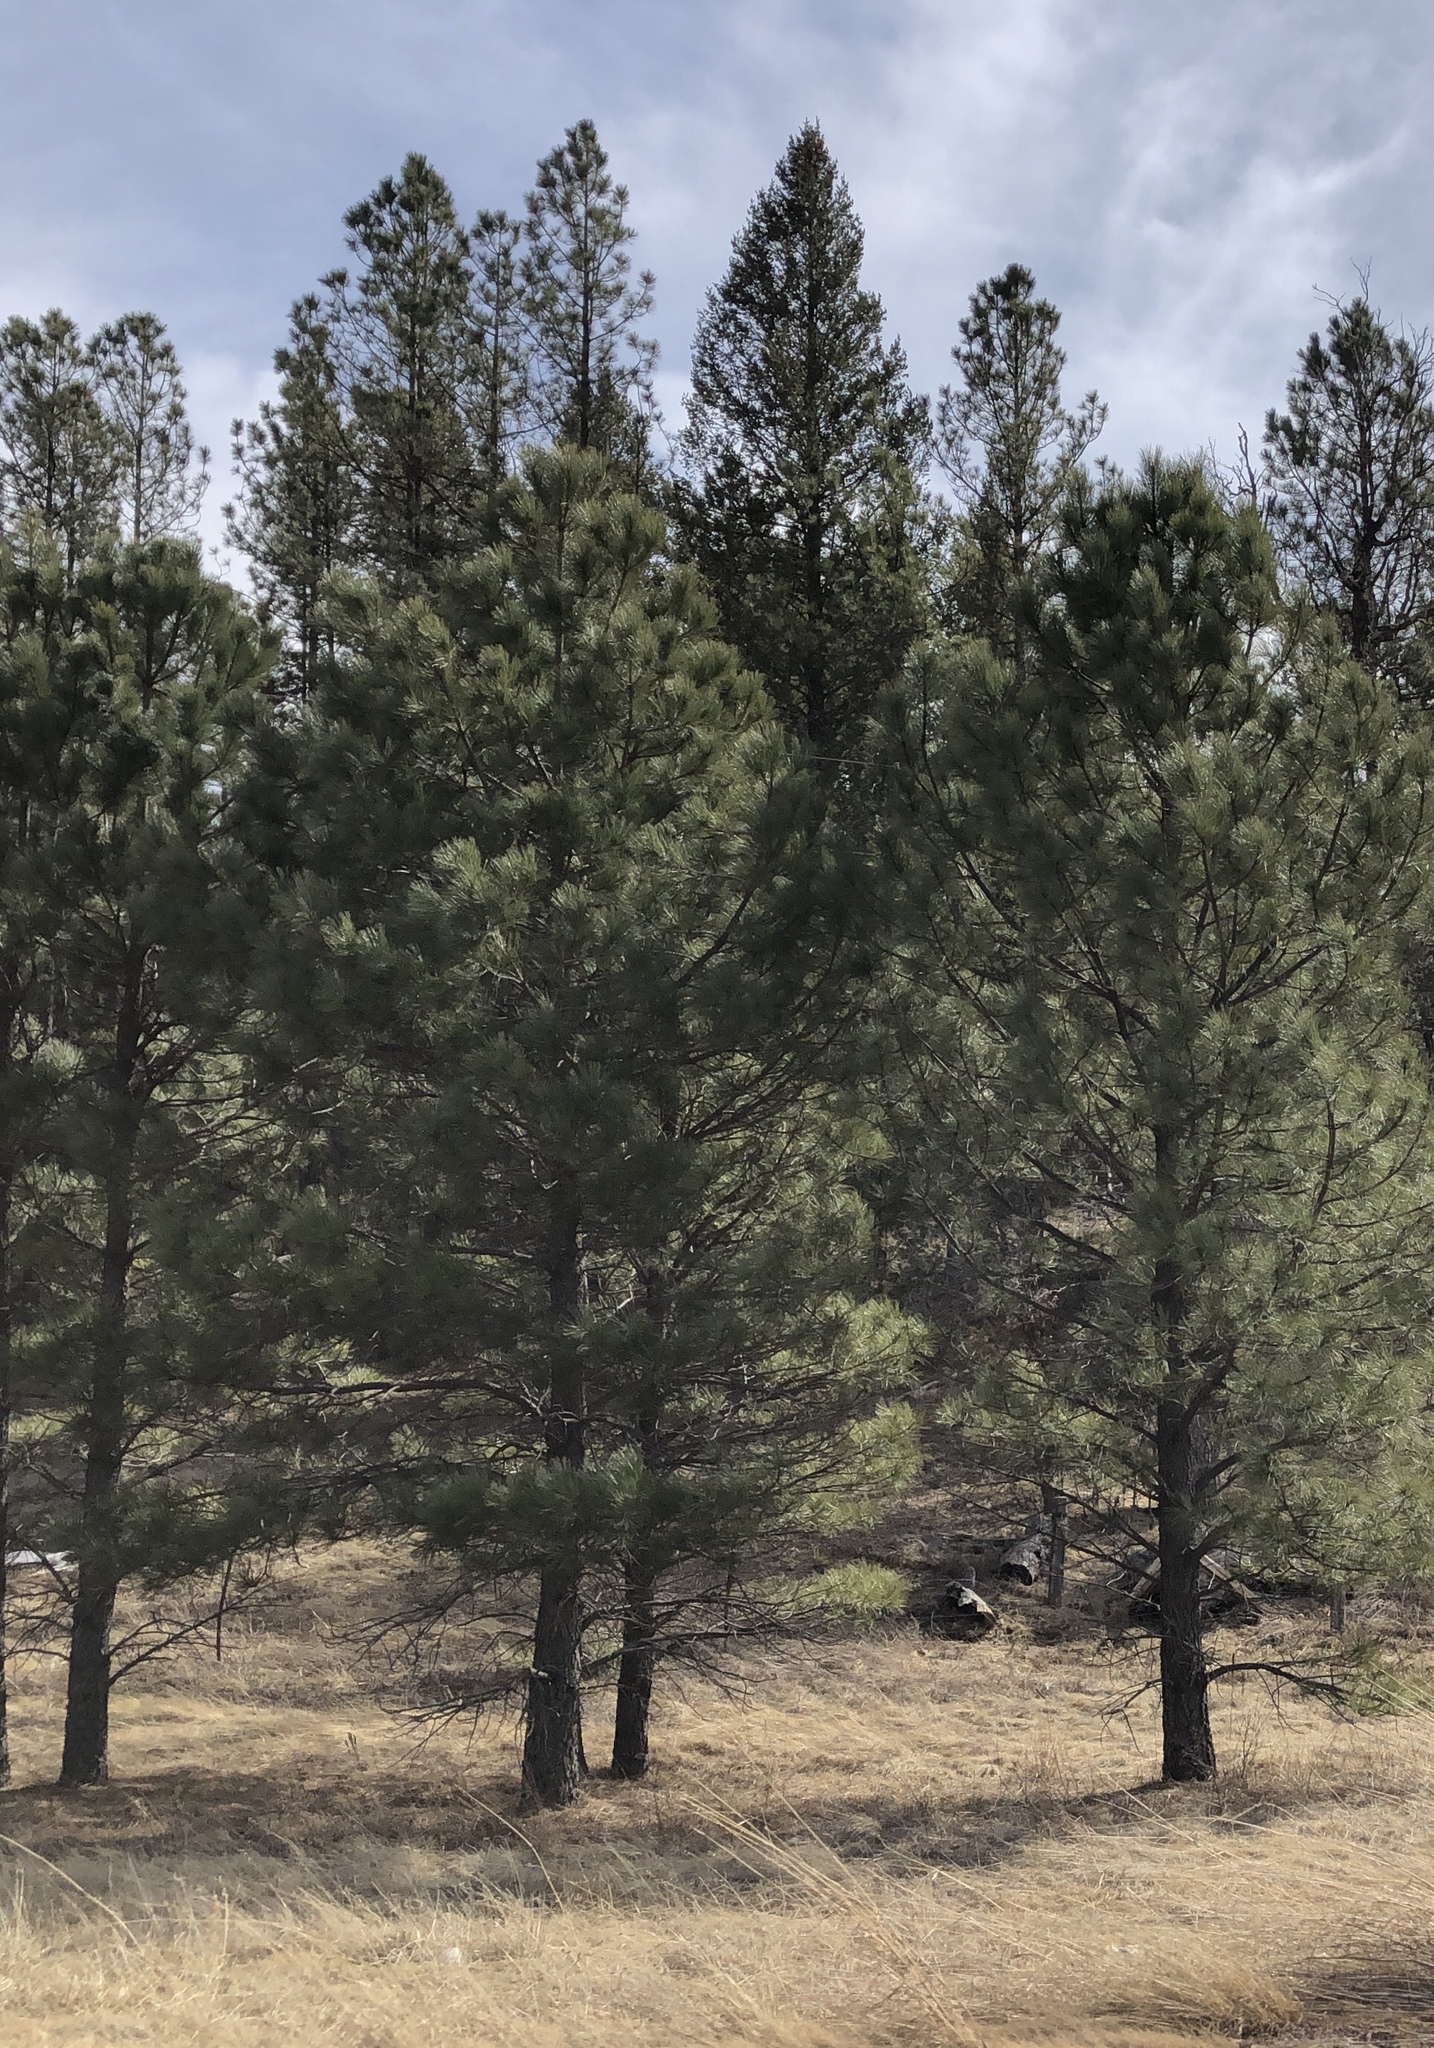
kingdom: Plantae
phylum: Tracheophyta
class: Pinopsida
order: Pinales
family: Pinaceae
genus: Pinus
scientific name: Pinus ponderosa
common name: Western yellow-pine
